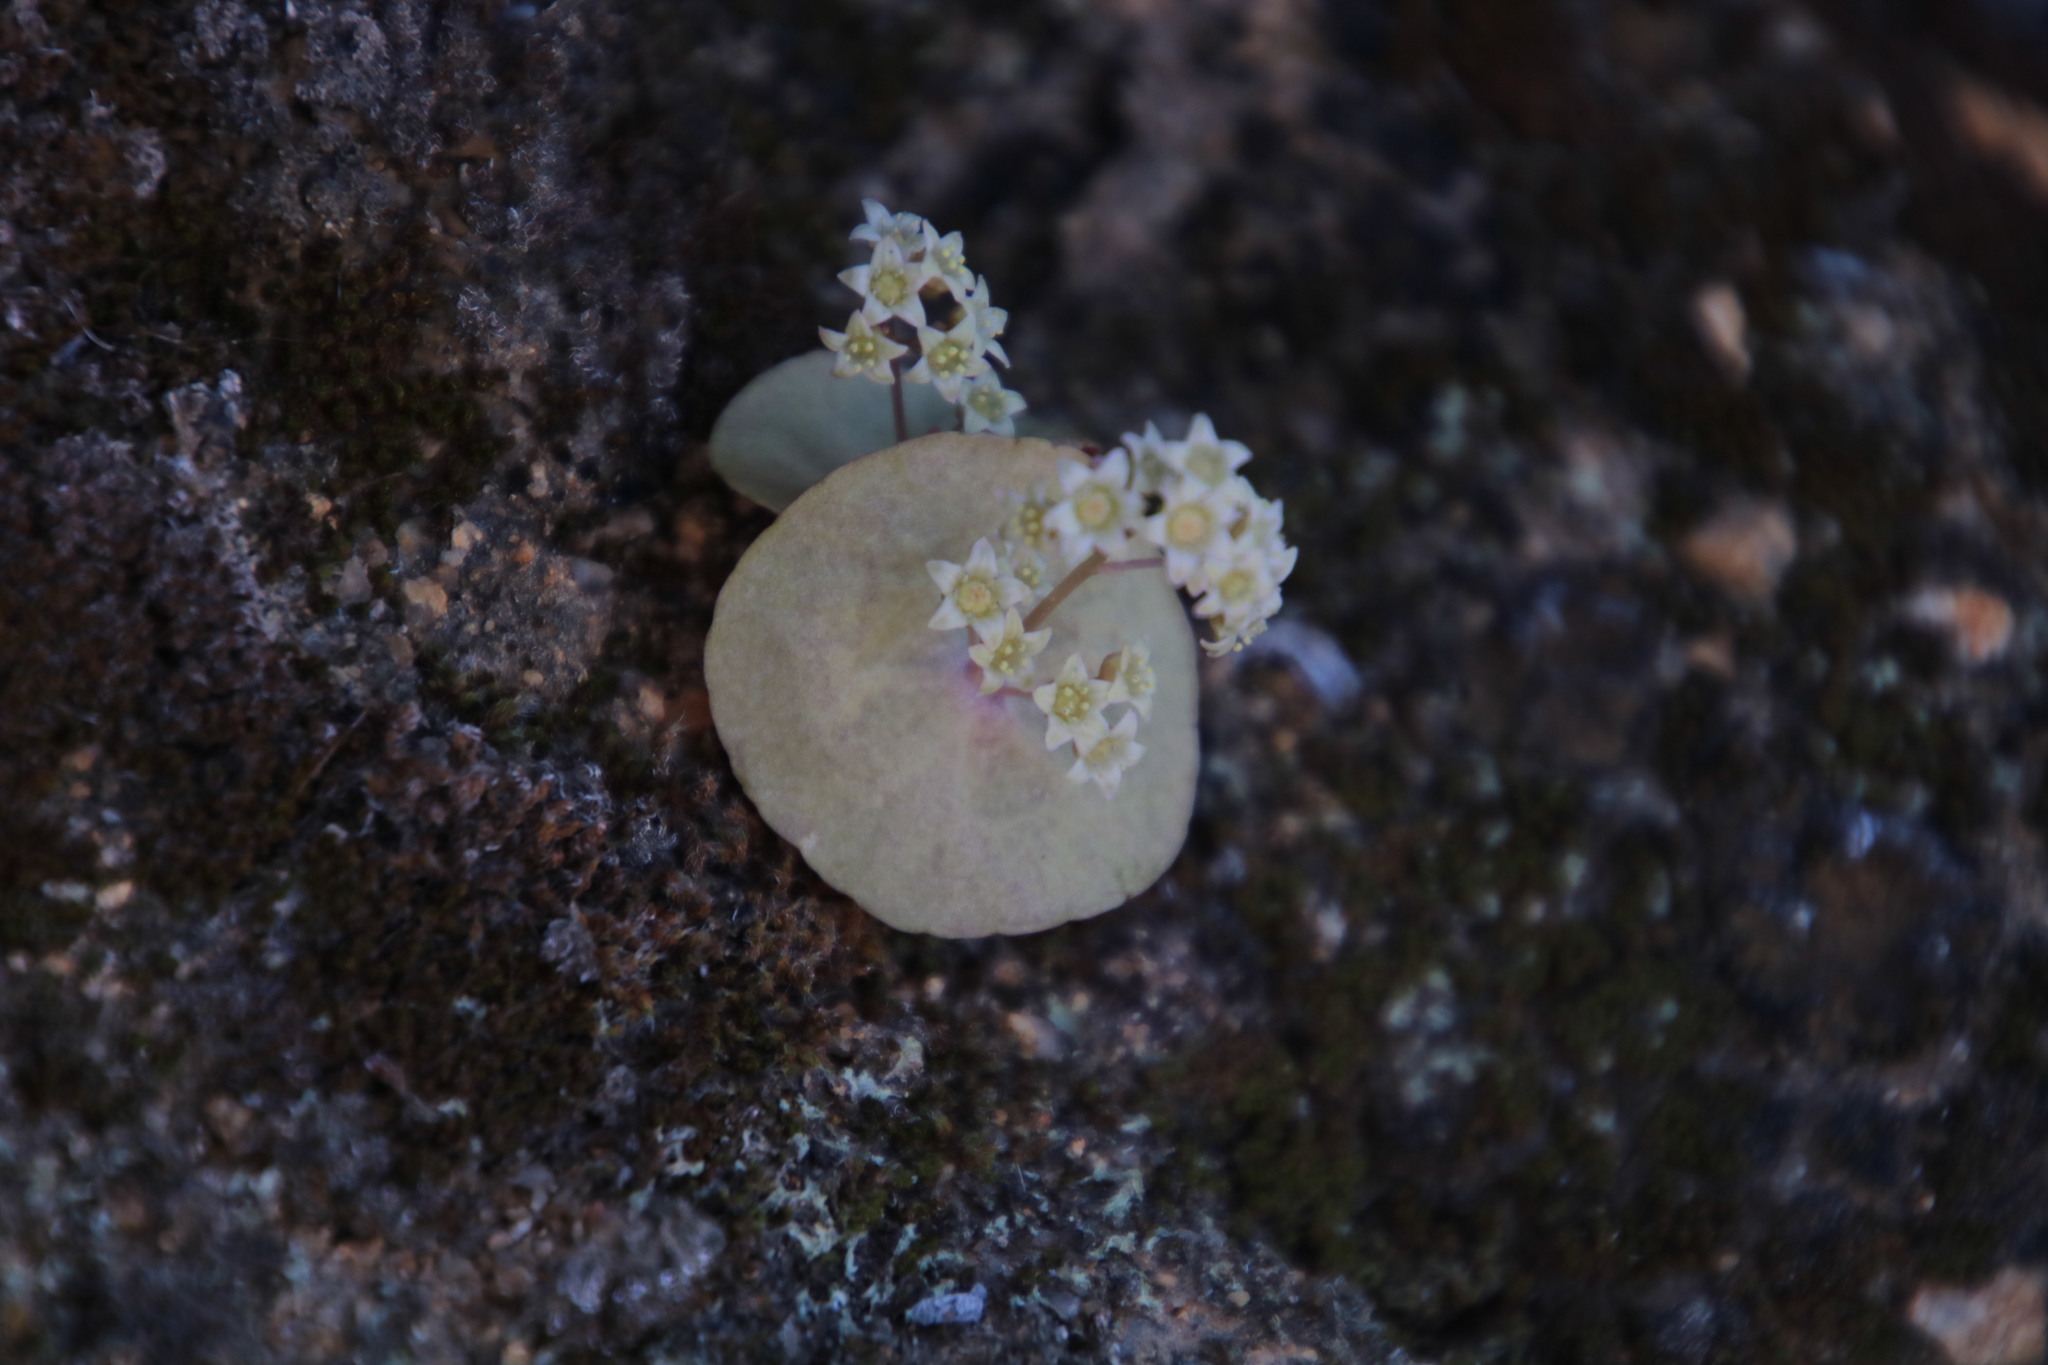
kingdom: Plantae
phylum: Tracheophyta
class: Magnoliopsida
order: Saxifragales
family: Crassulaceae
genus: Crassula
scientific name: Crassula umbella
